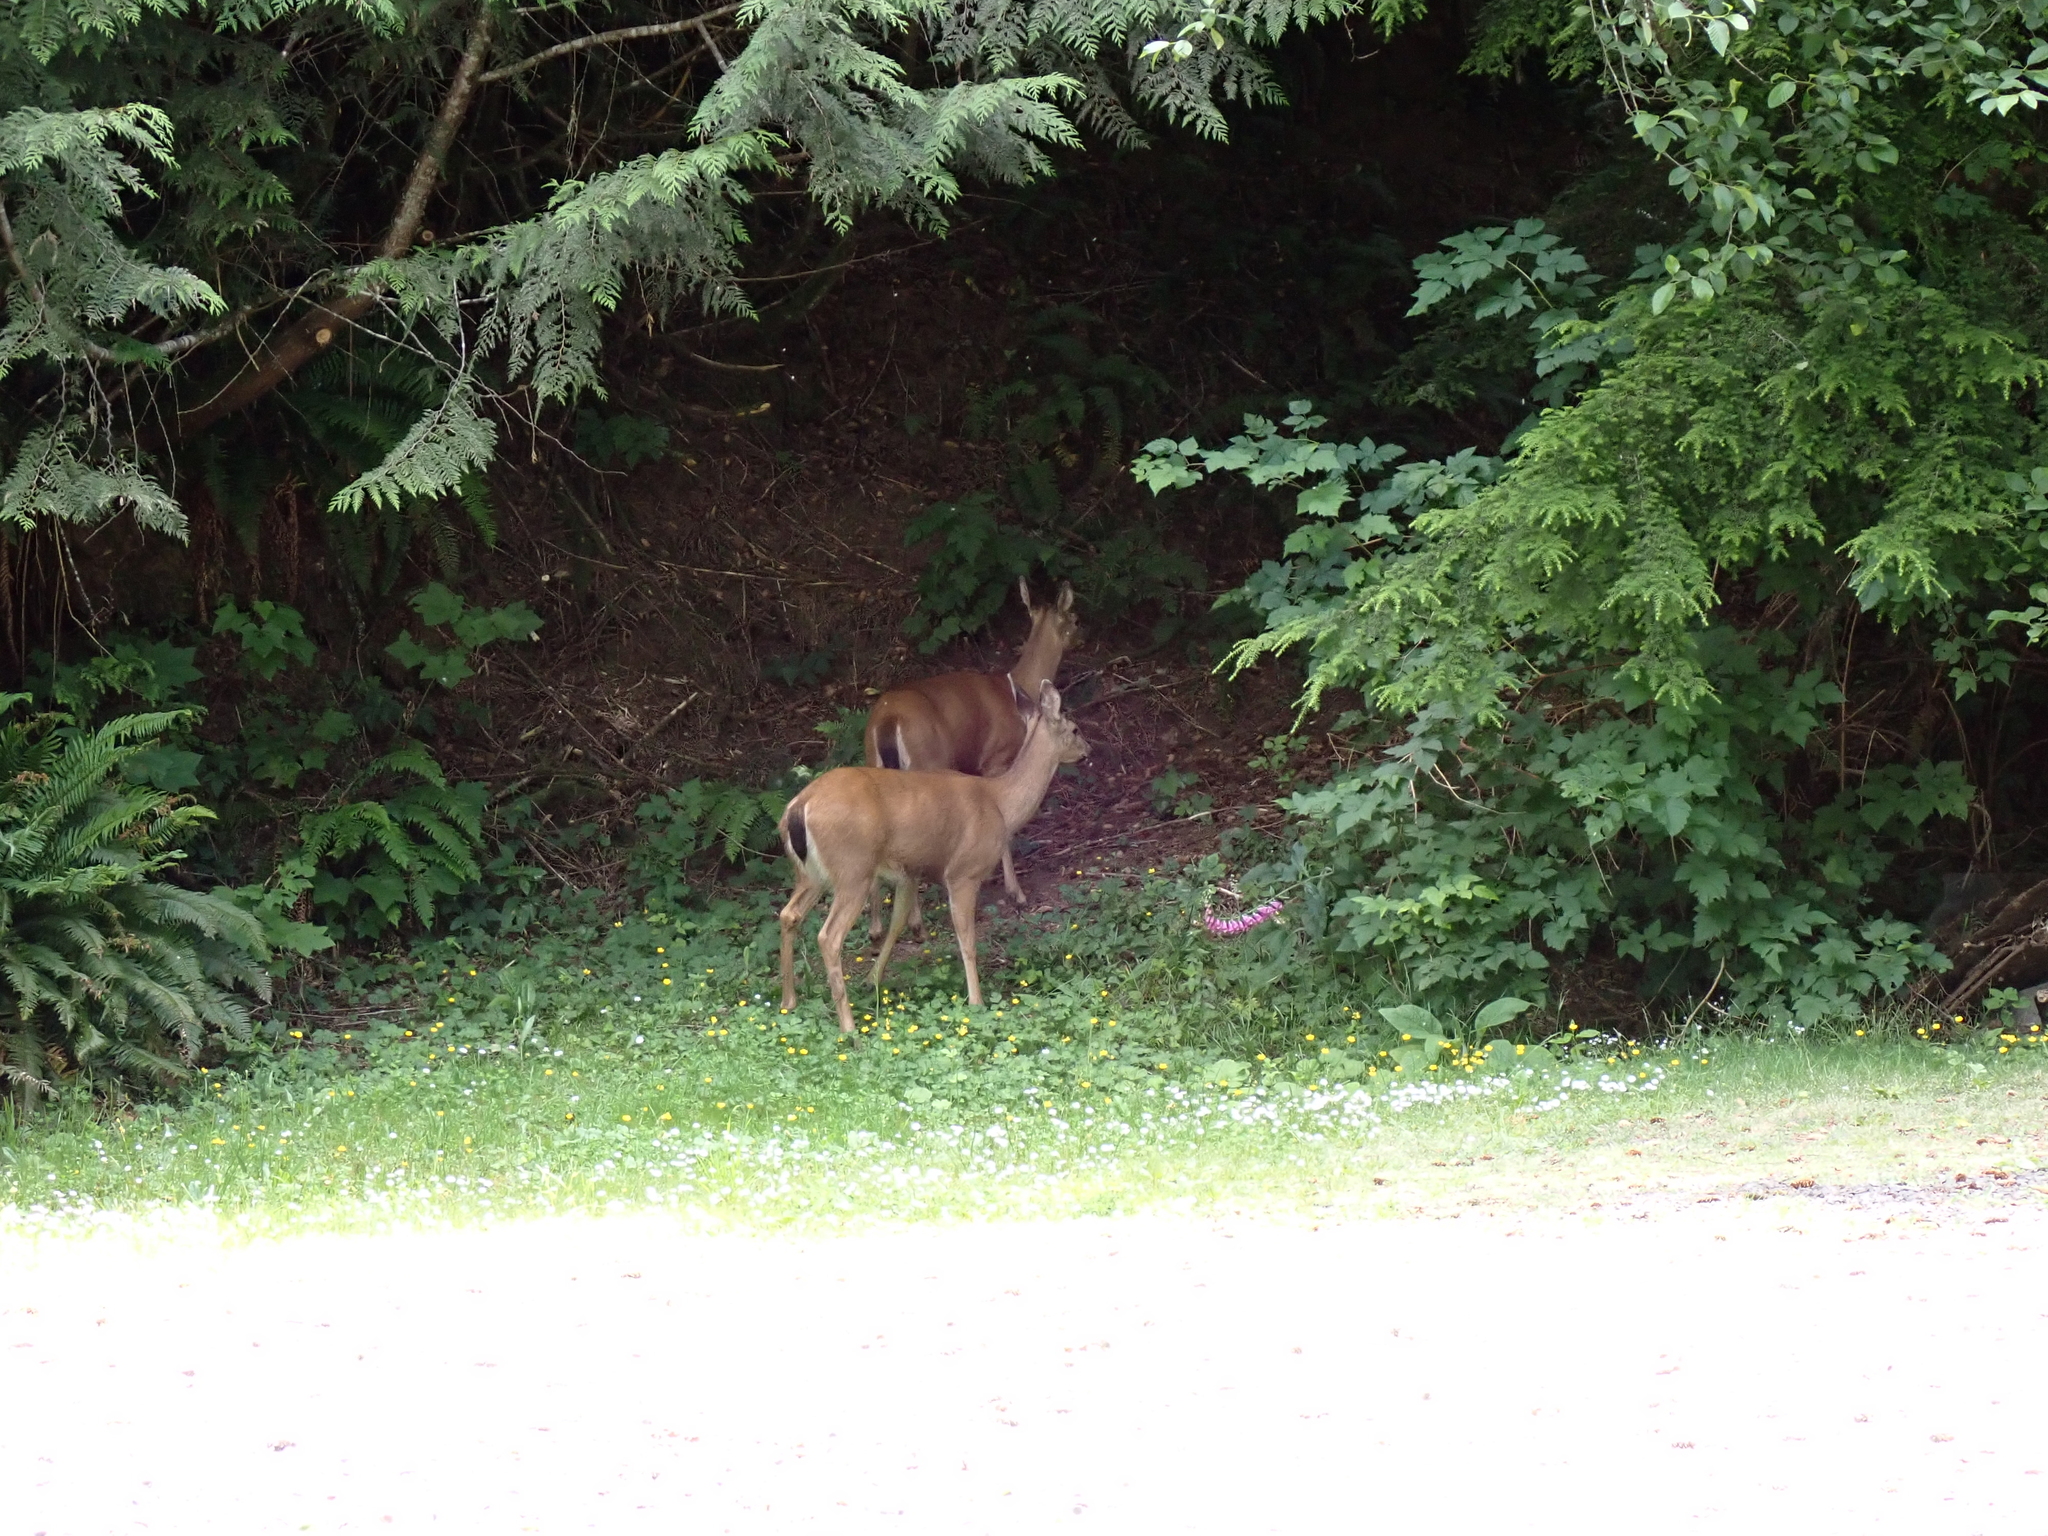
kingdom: Animalia
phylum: Chordata
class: Mammalia
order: Artiodactyla
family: Cervidae
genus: Odocoileus
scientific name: Odocoileus hemionus
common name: Mule deer
